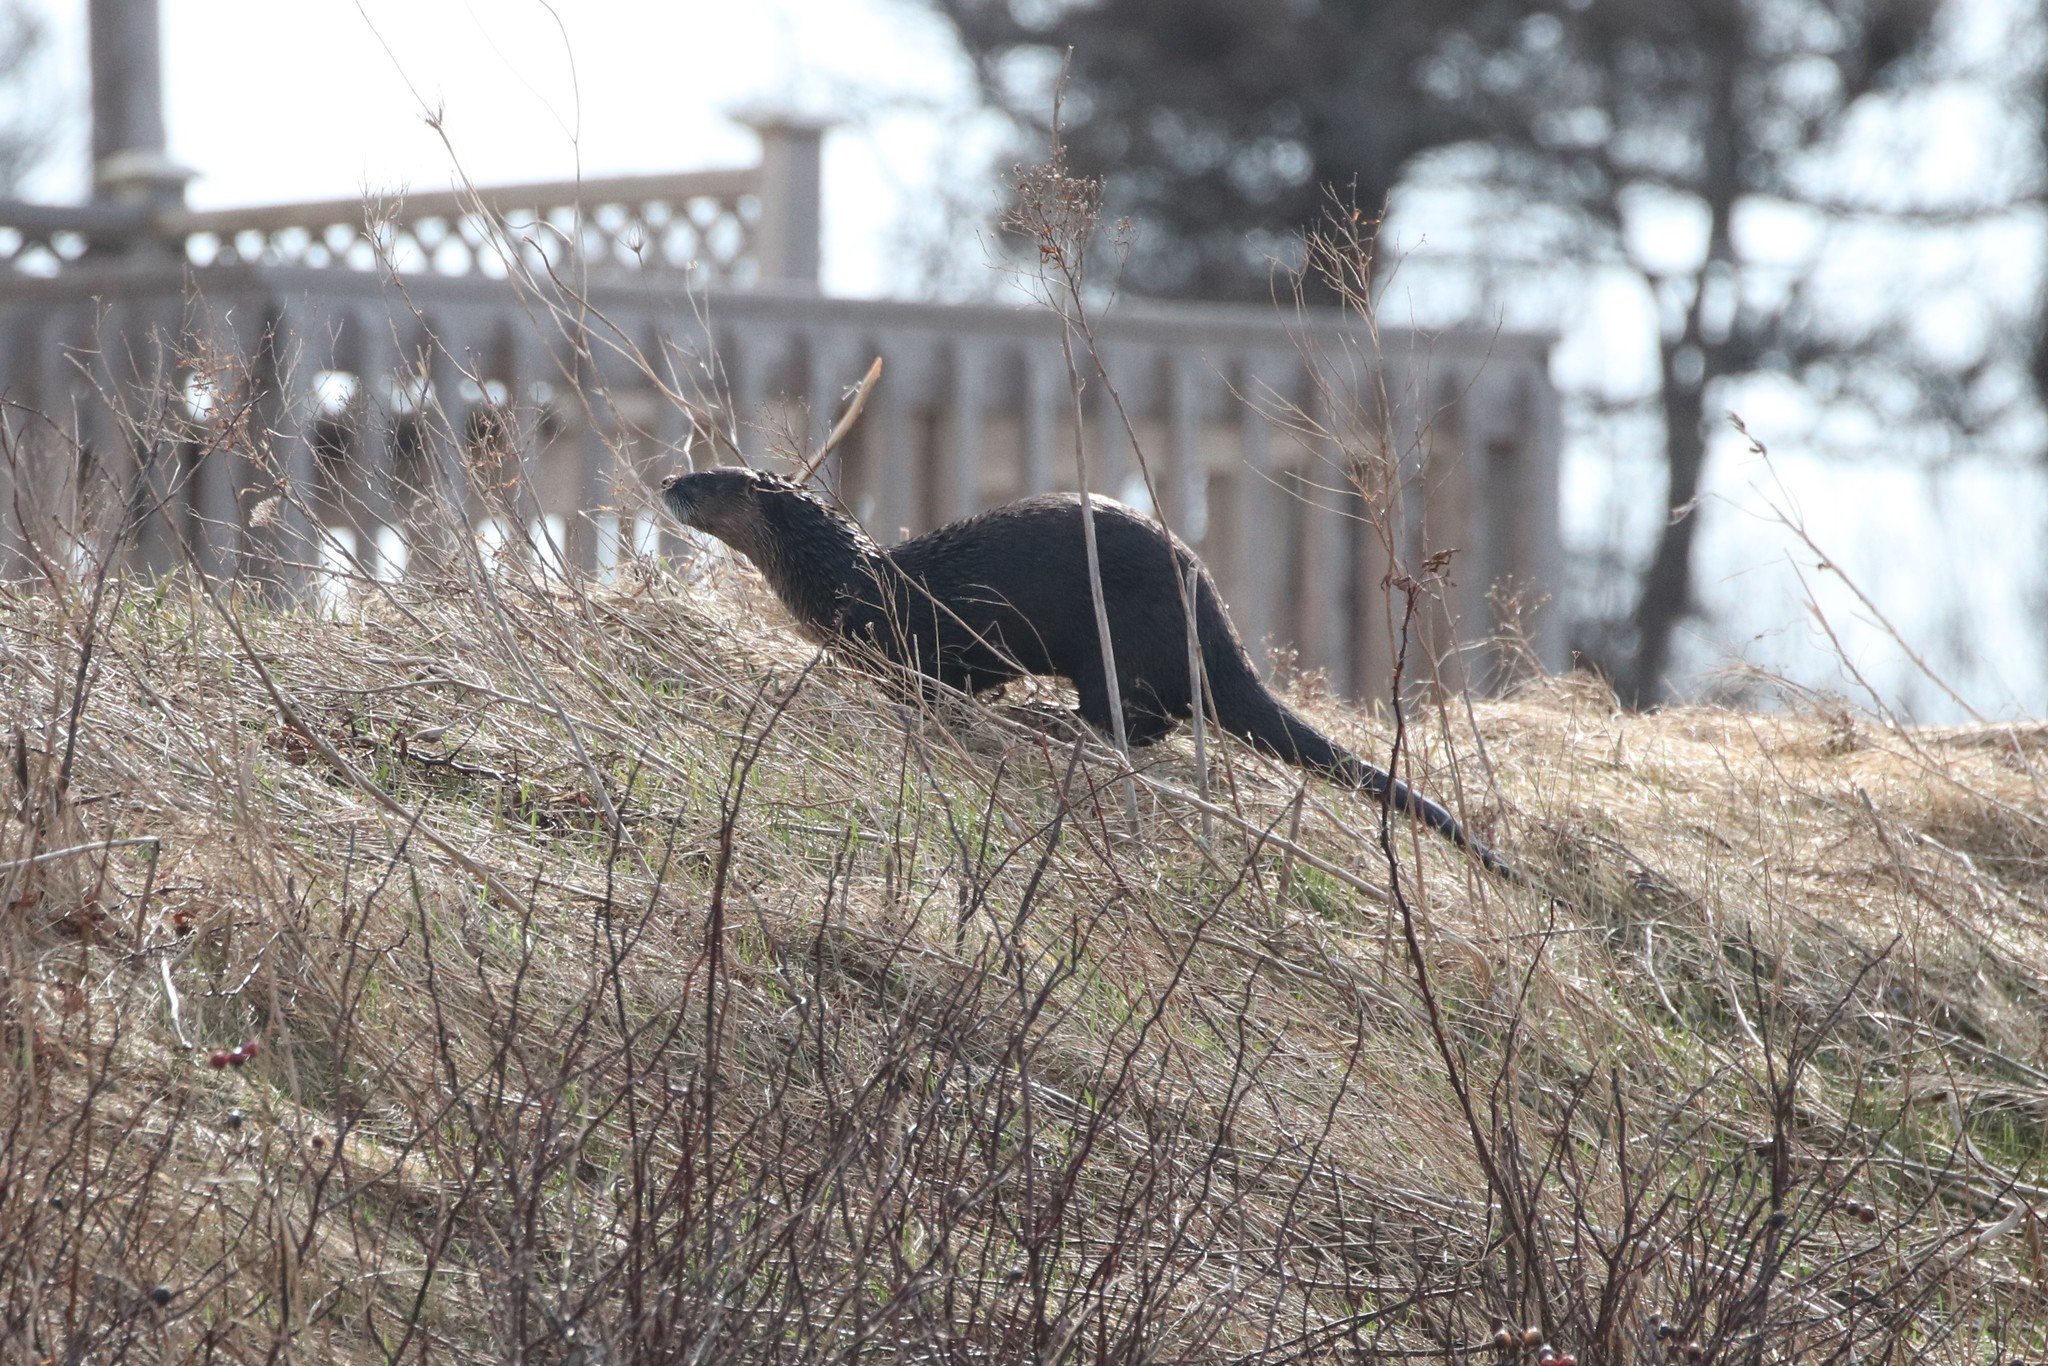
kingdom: Animalia
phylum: Chordata
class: Mammalia
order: Carnivora
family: Mustelidae
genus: Lontra
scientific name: Lontra canadensis
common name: North american river otter
